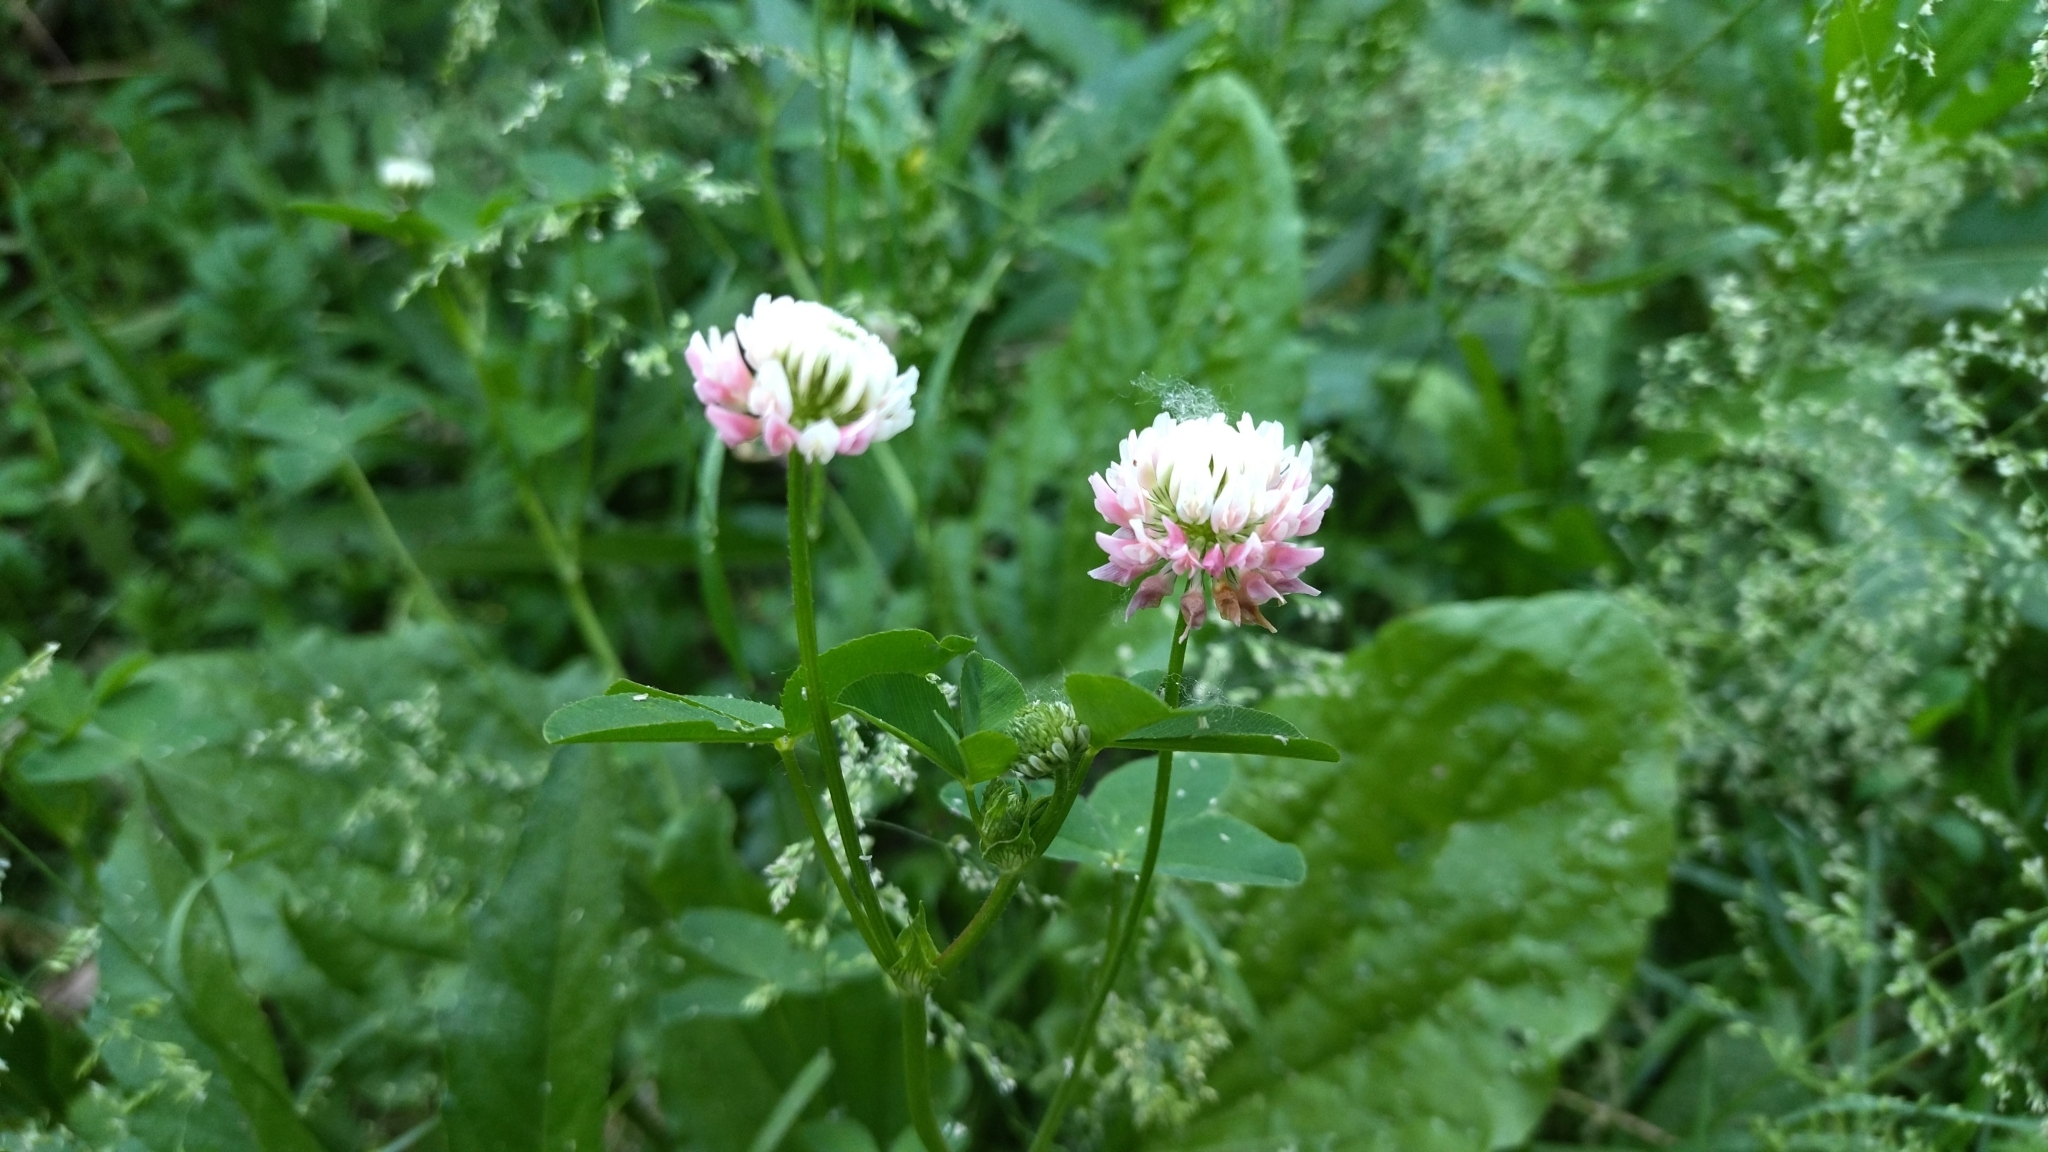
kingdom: Plantae
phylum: Tracheophyta
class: Magnoliopsida
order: Fabales
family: Fabaceae
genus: Trifolium
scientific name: Trifolium hybridum
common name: Alsike clover
